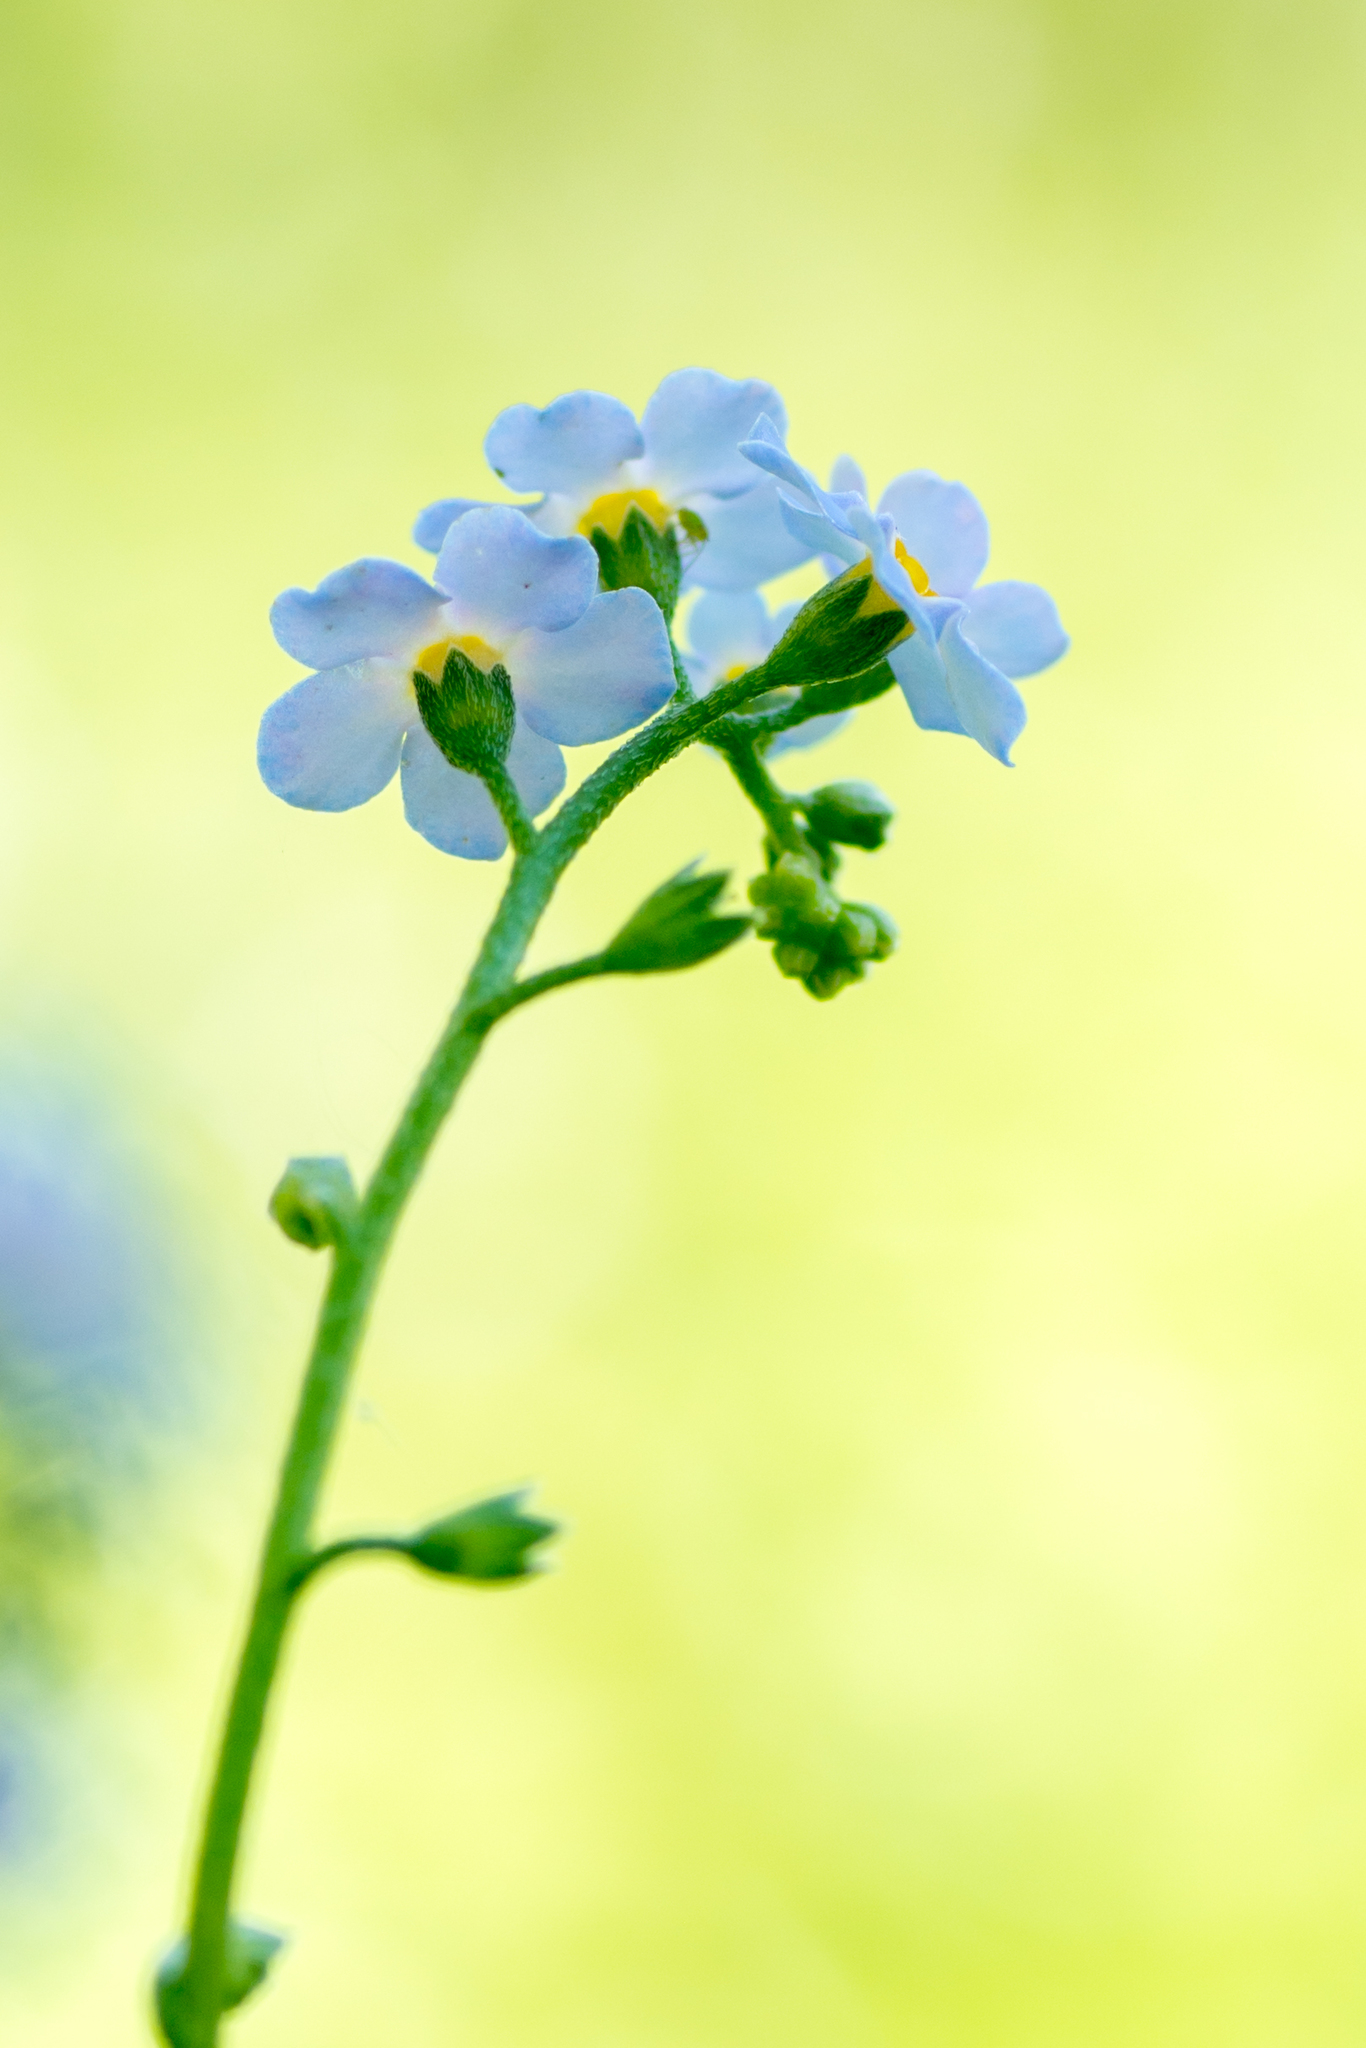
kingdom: Plantae
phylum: Tracheophyta
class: Magnoliopsida
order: Boraginales
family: Boraginaceae
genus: Myosotis
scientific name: Myosotis scorpioides
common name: Water forget-me-not
